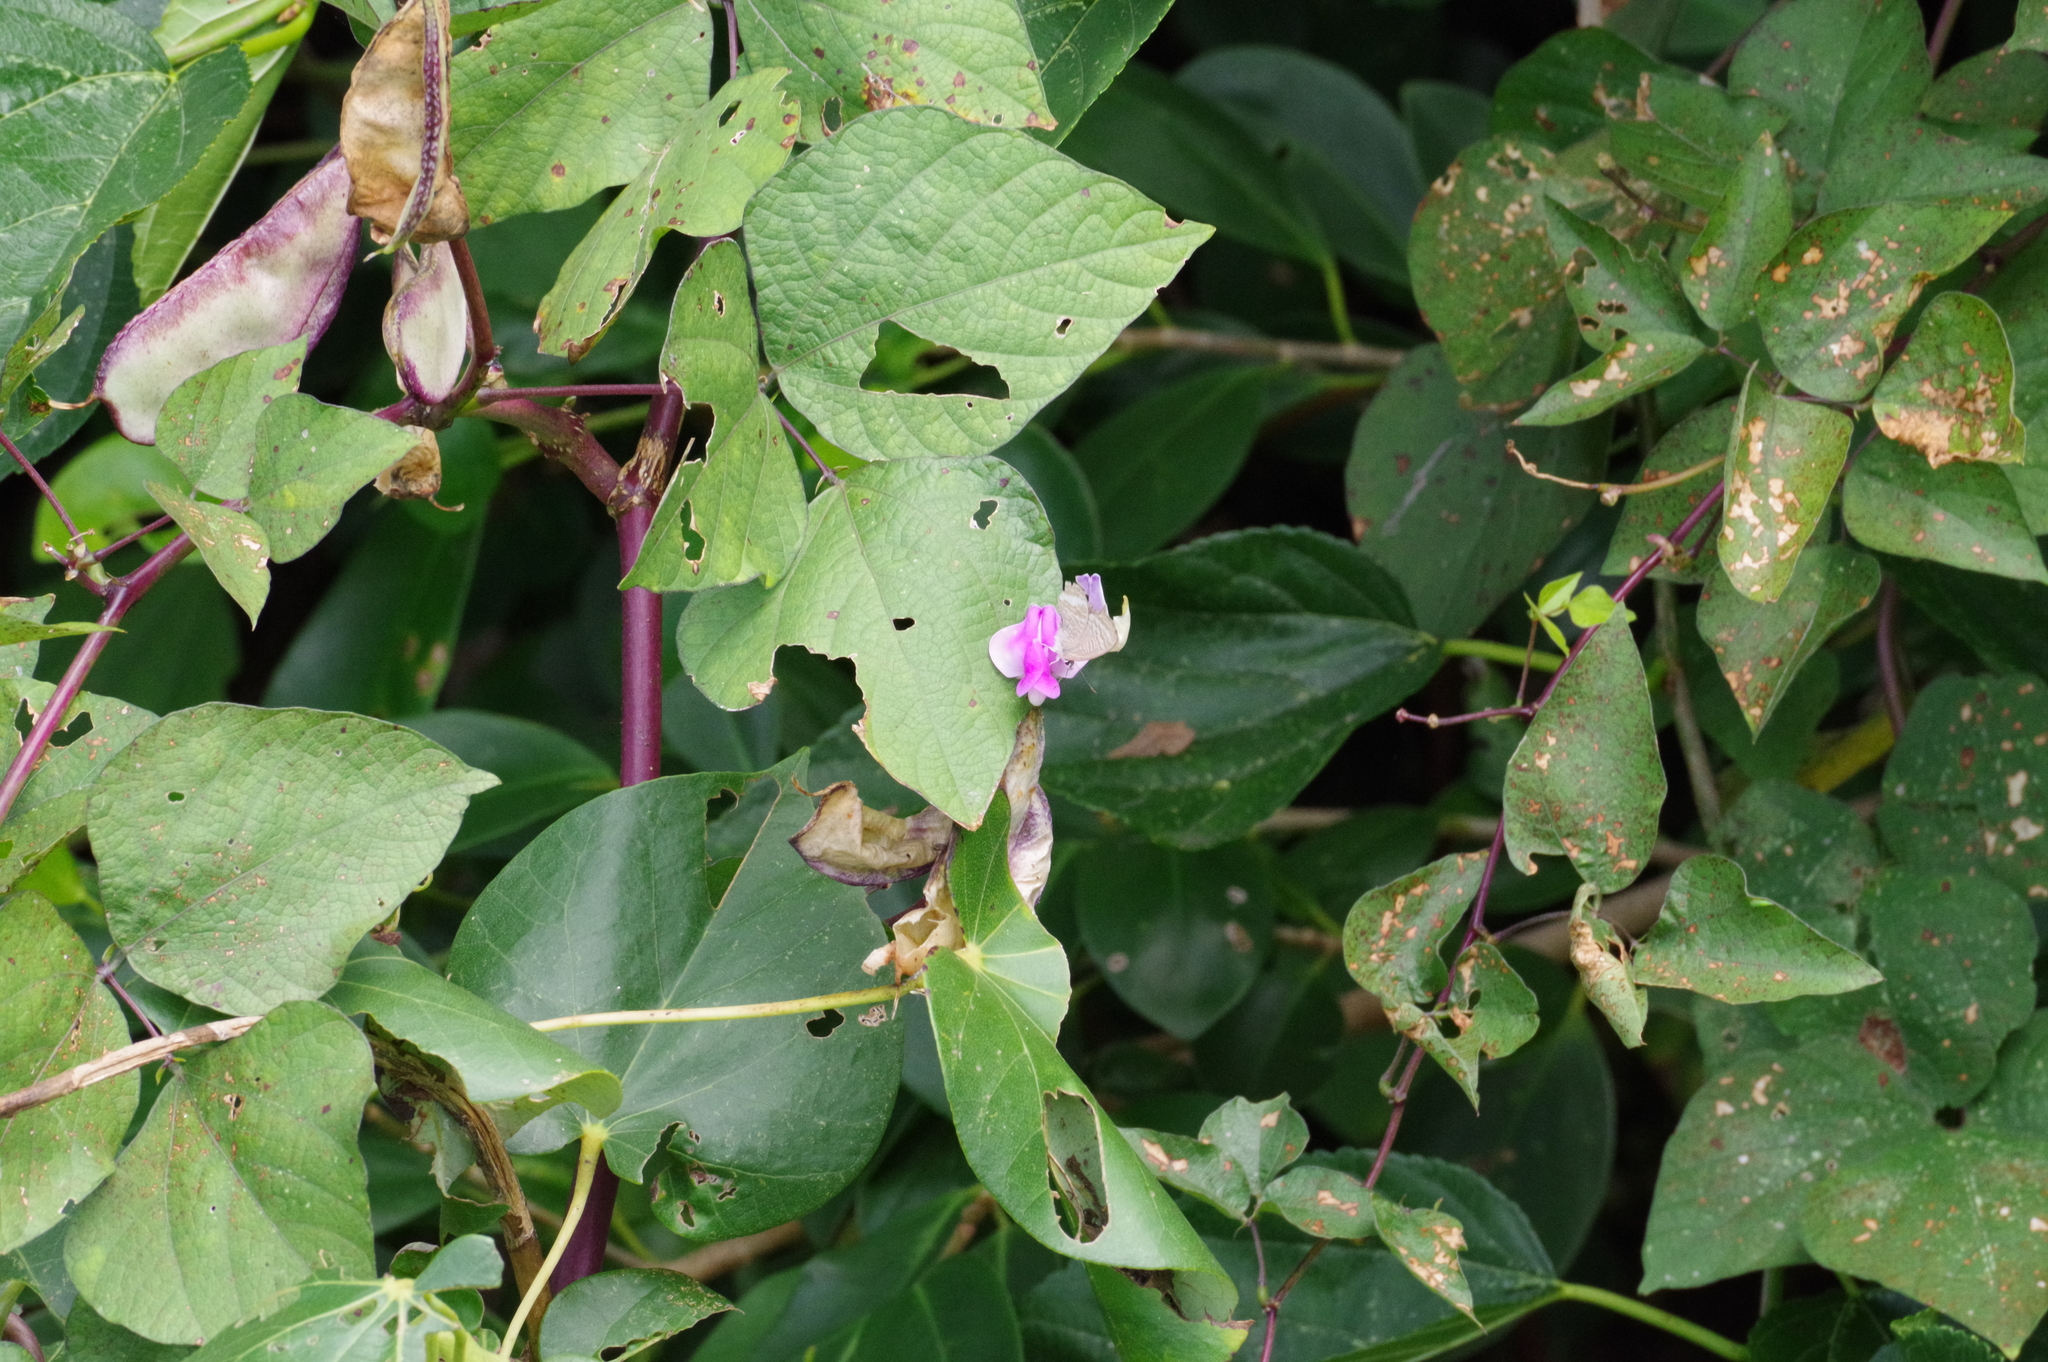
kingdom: Plantae
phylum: Tracheophyta
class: Magnoliopsida
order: Fabales
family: Fabaceae
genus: Lablab
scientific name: Lablab purpureus
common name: Lablab-bean
